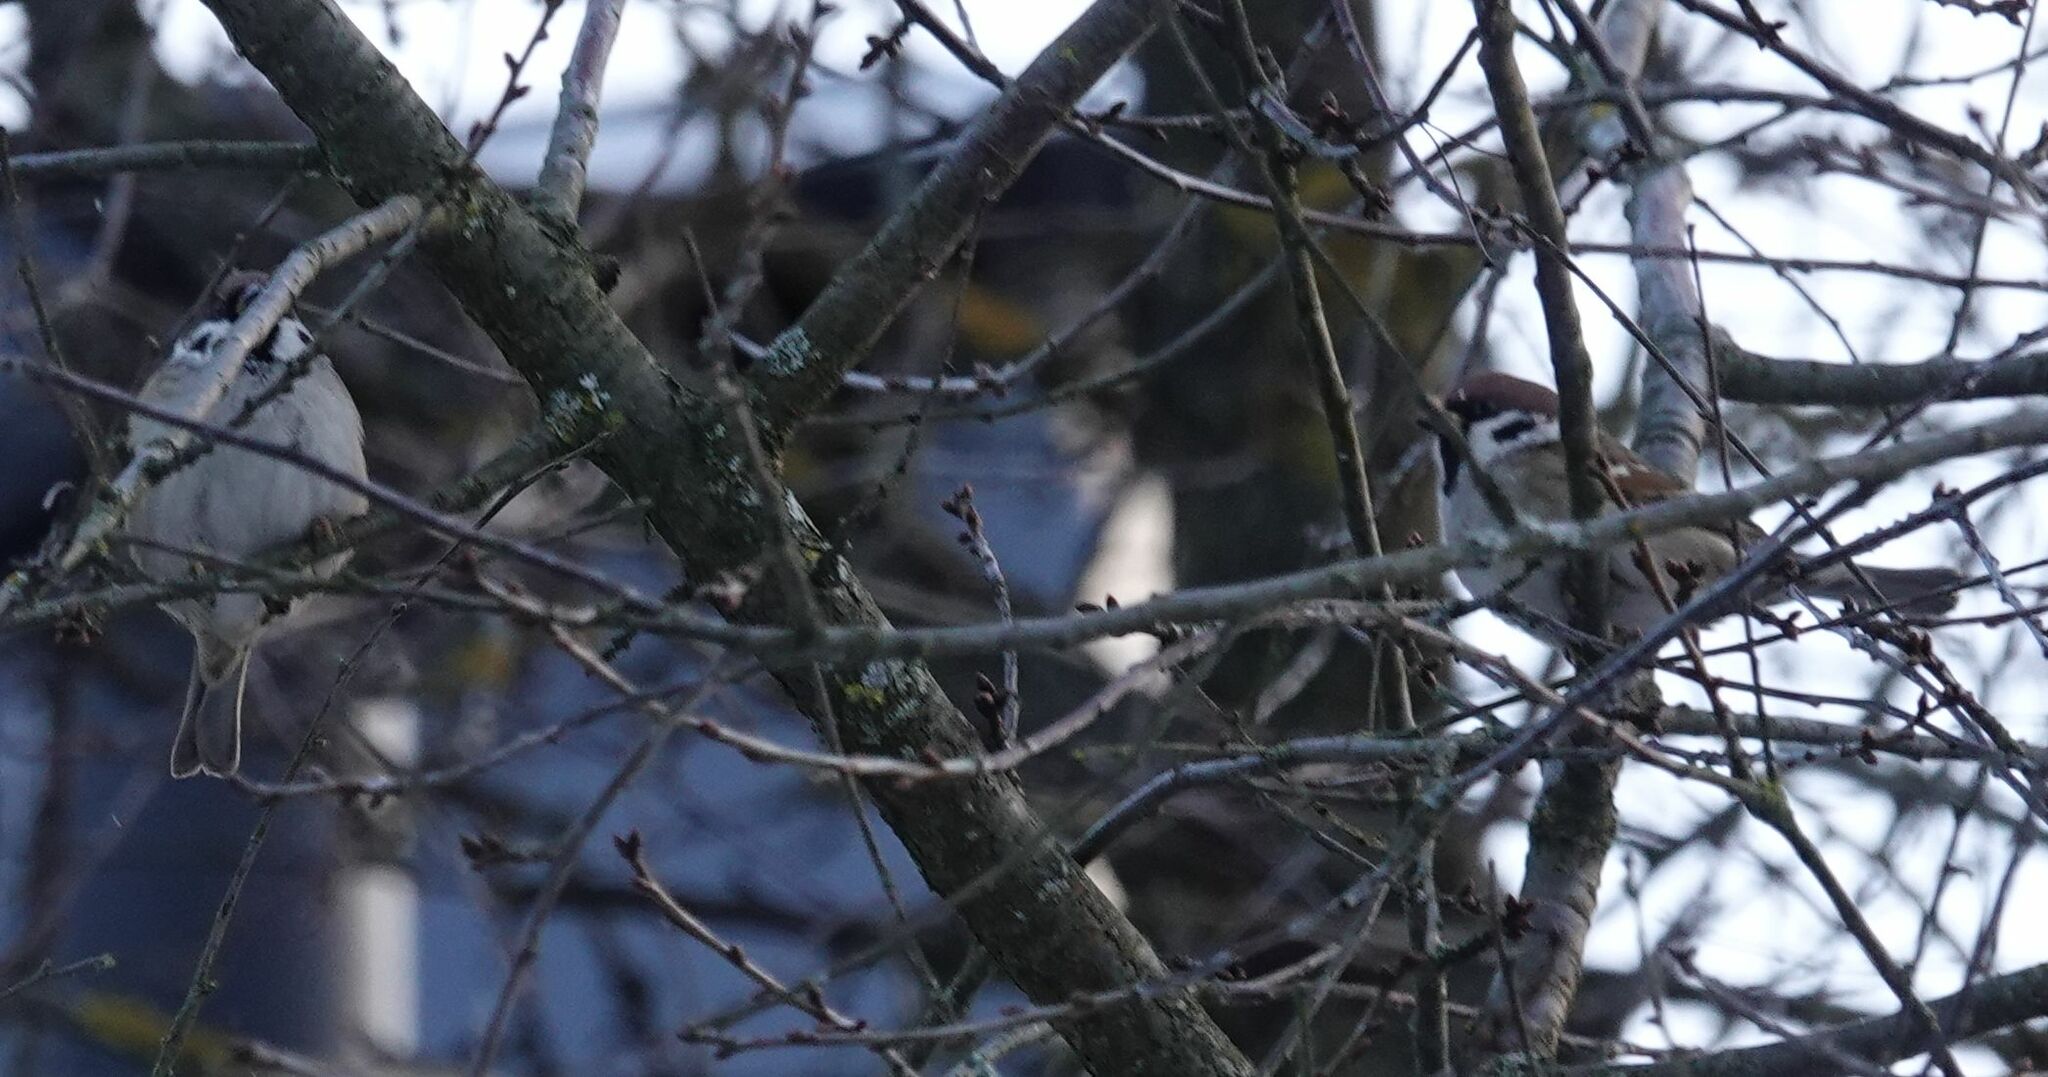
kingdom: Animalia
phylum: Chordata
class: Aves
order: Passeriformes
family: Passeridae
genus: Passer
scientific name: Passer montanus
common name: Eurasian tree sparrow
